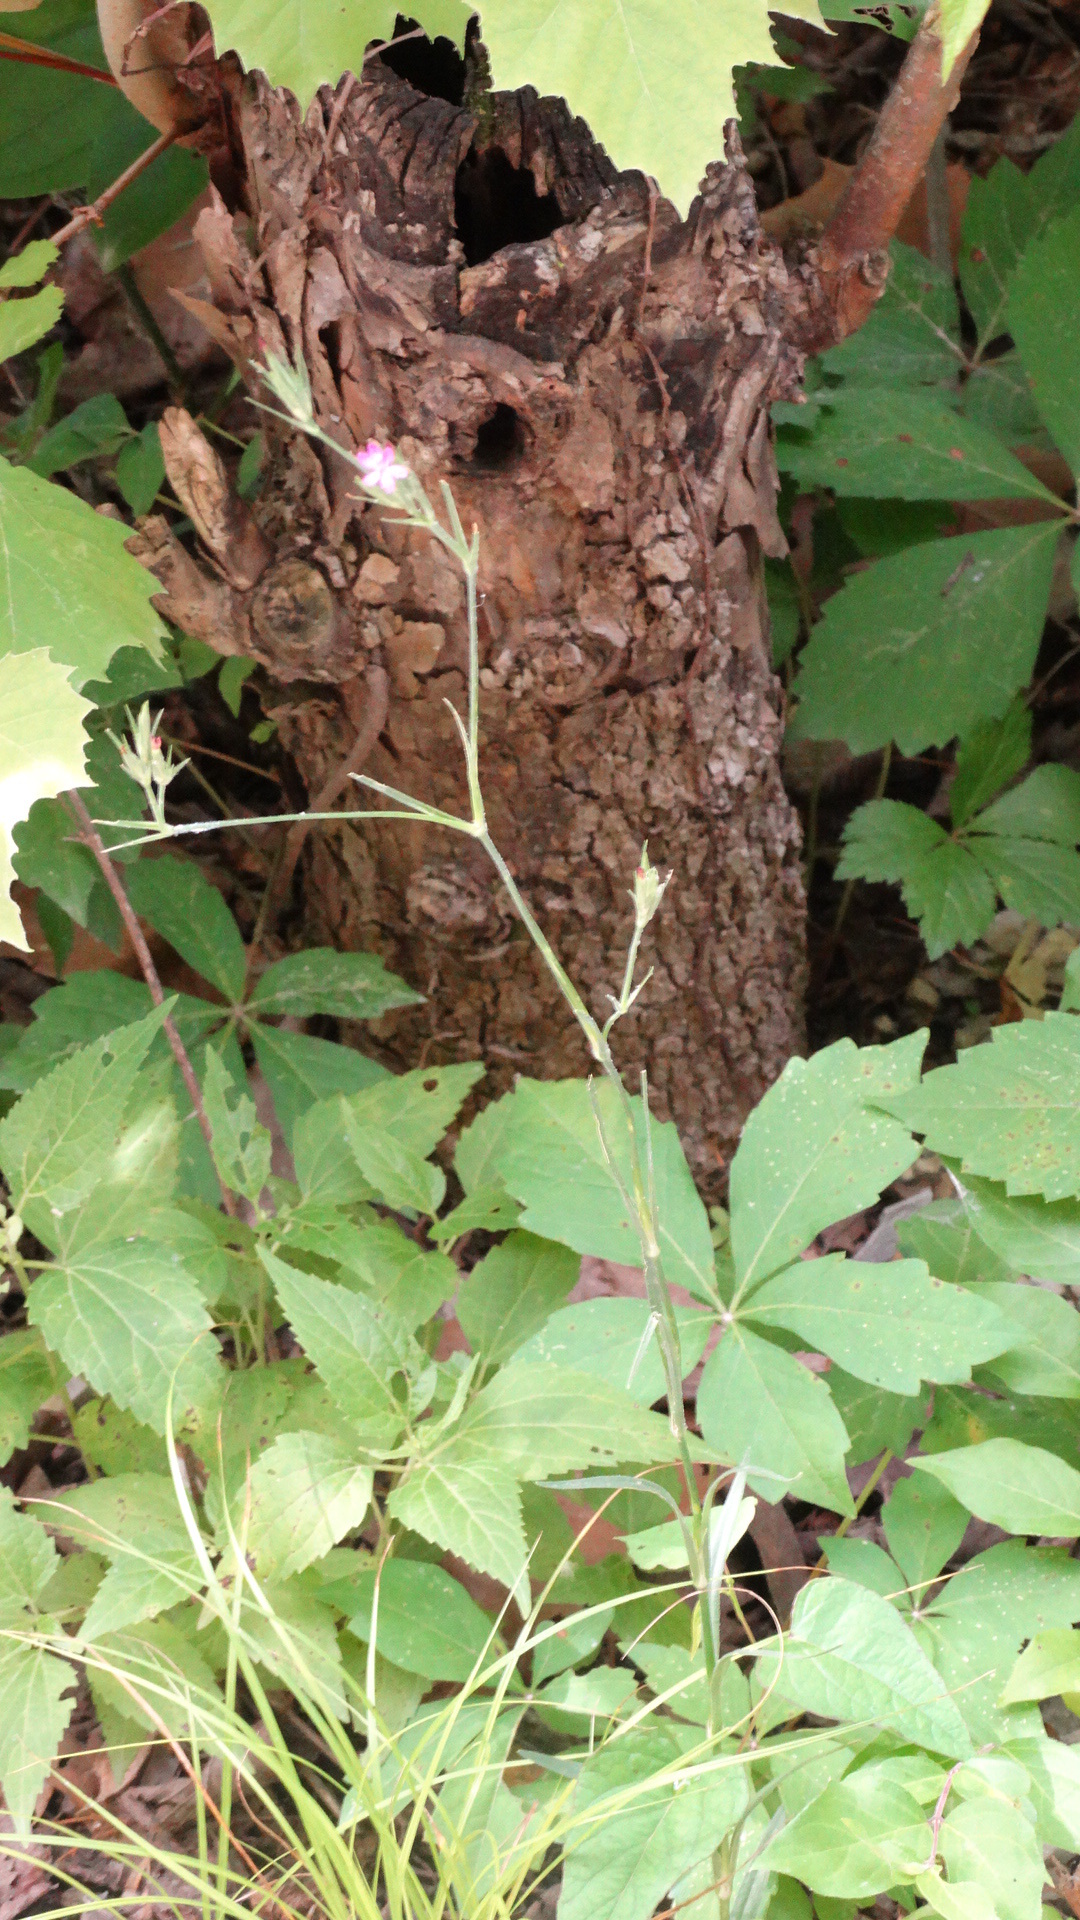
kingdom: Plantae
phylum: Tracheophyta
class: Magnoliopsida
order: Caryophyllales
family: Caryophyllaceae
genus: Dianthus
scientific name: Dianthus armeria
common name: Deptford pink
